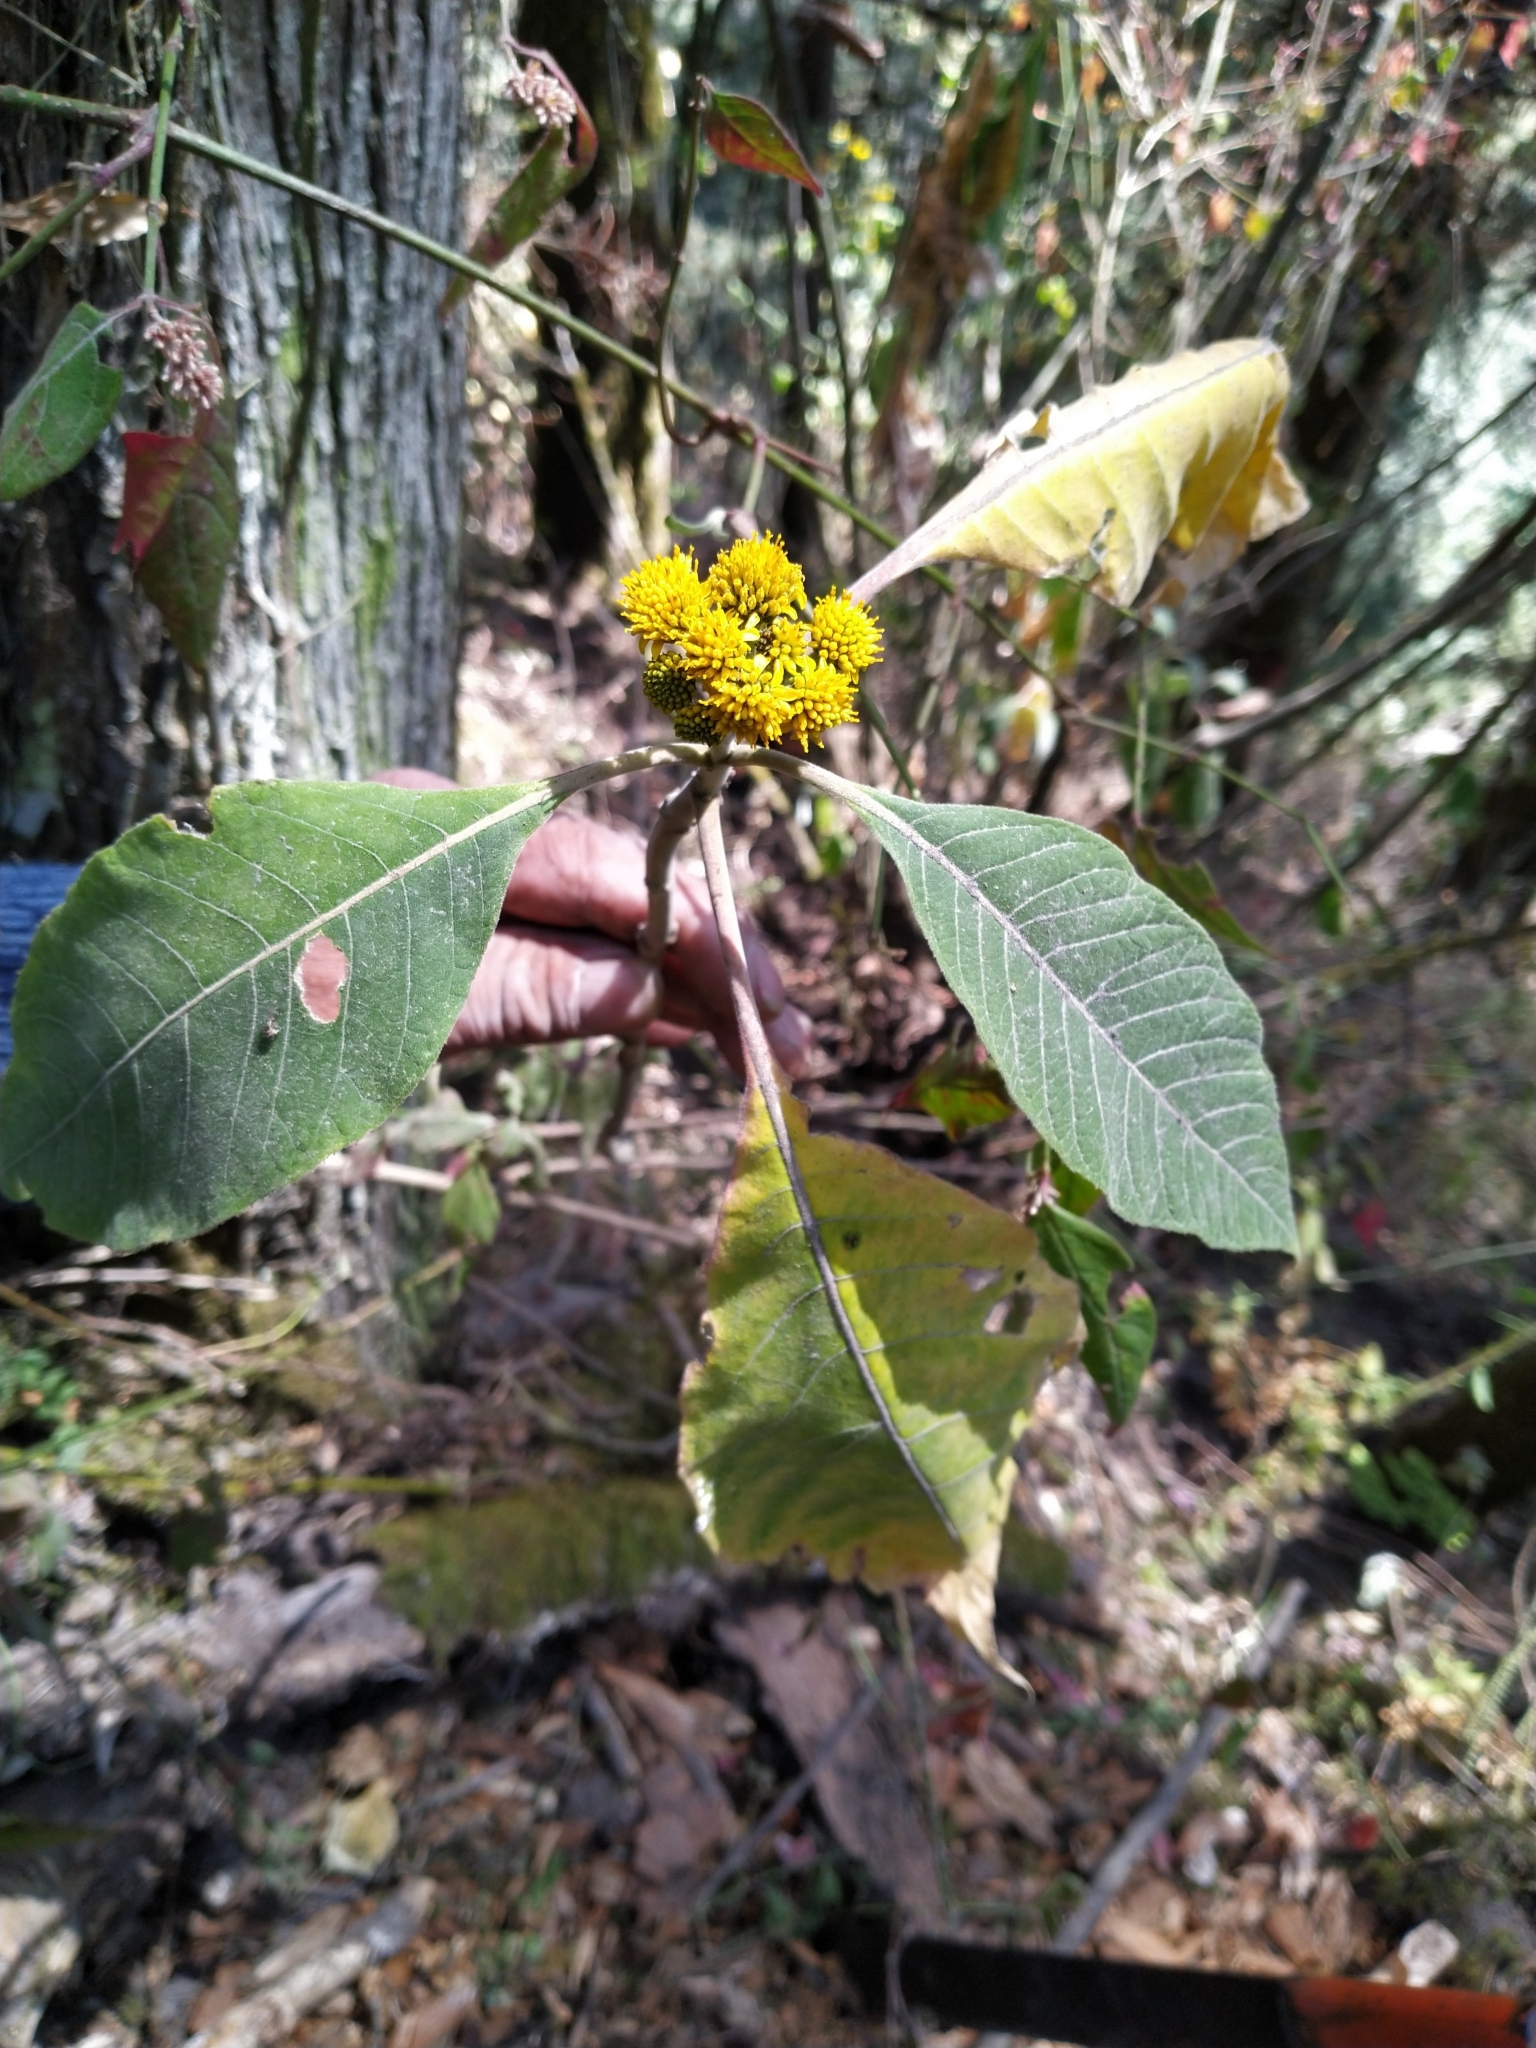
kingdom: Plantae
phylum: Tracheophyta
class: Magnoliopsida
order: Asterales
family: Asteraceae
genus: Verbesina
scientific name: Verbesina oncophora
